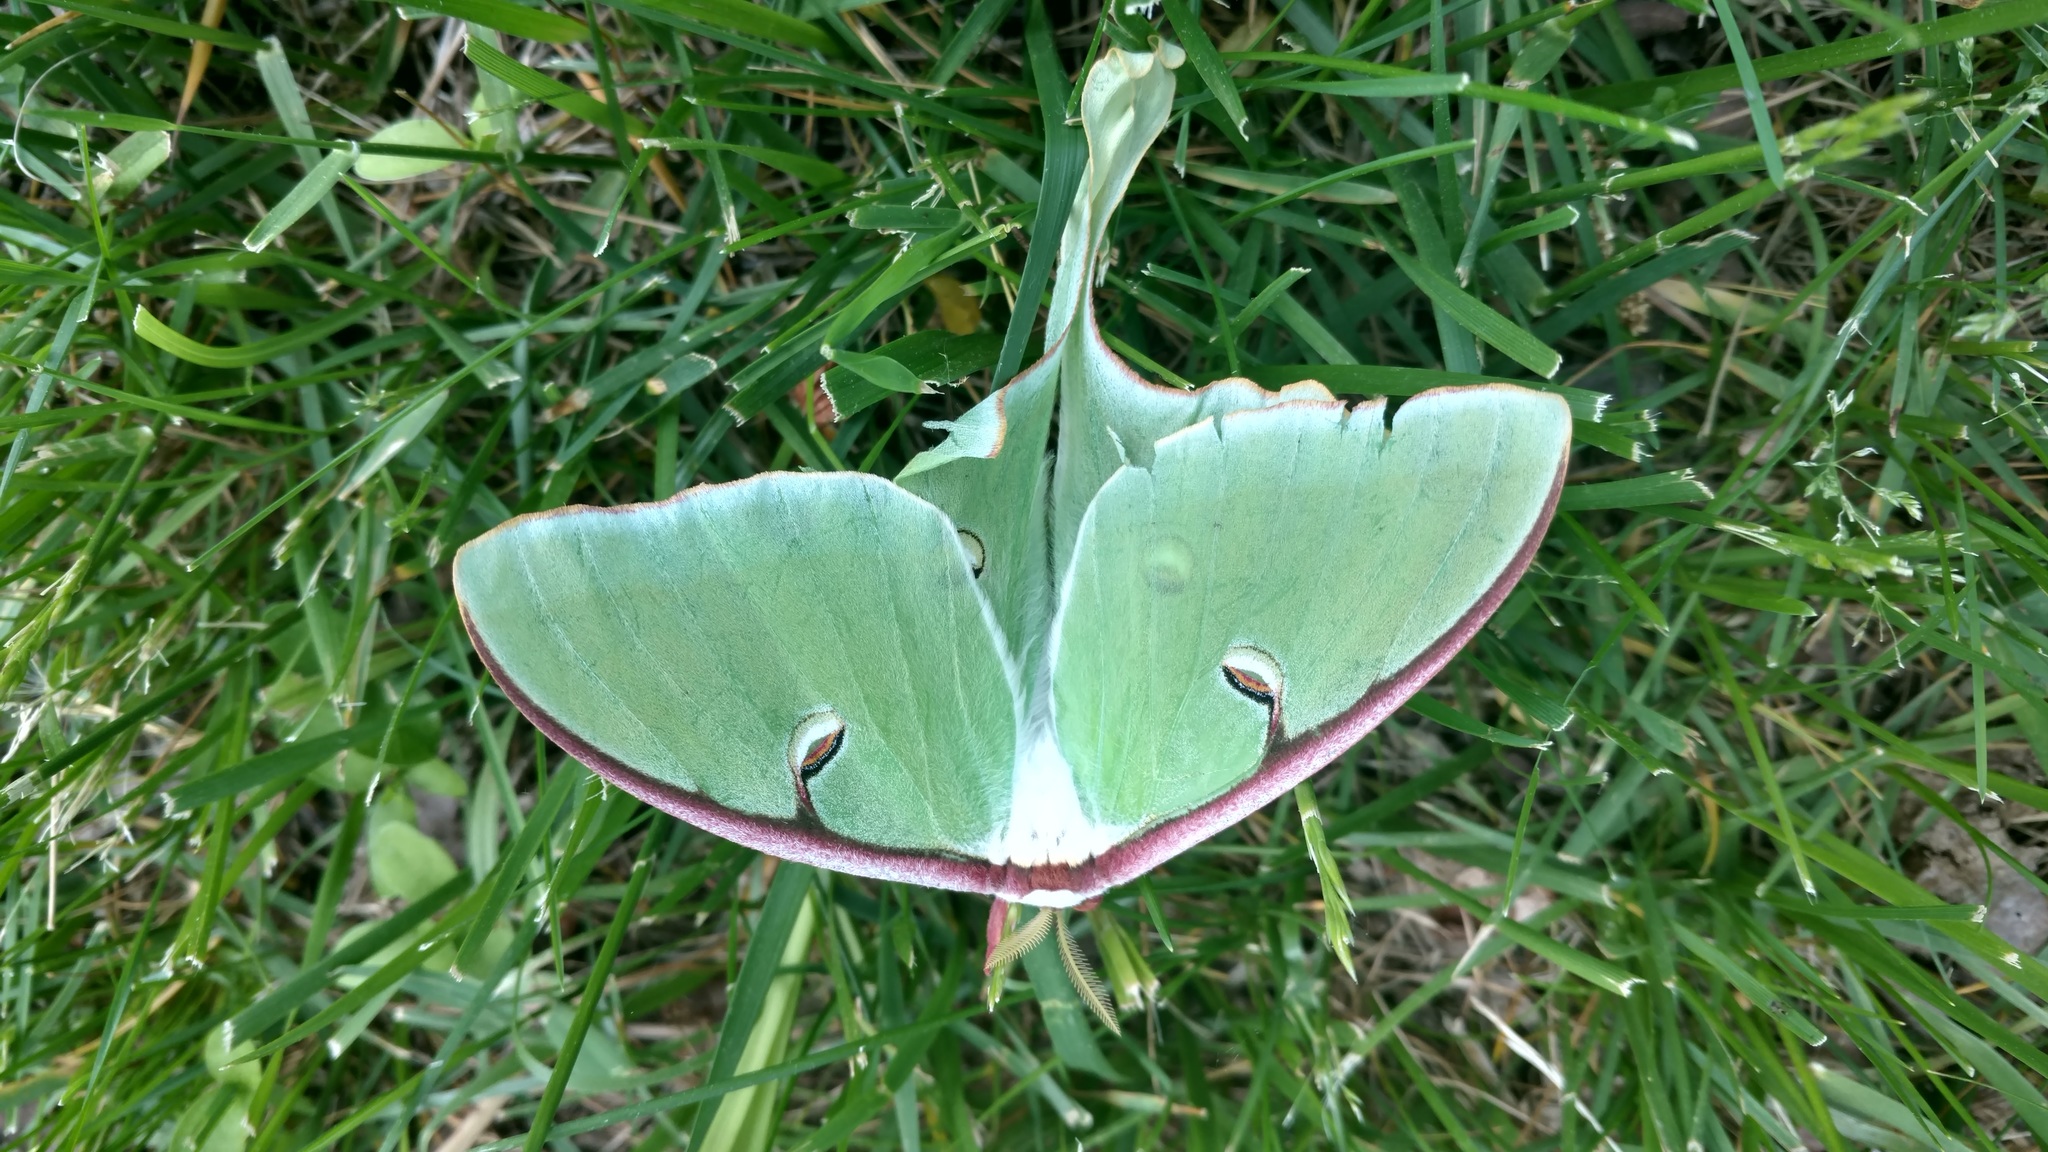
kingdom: Animalia
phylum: Arthropoda
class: Insecta
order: Lepidoptera
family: Saturniidae
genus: Actias
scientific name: Actias luna
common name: Luna moth
